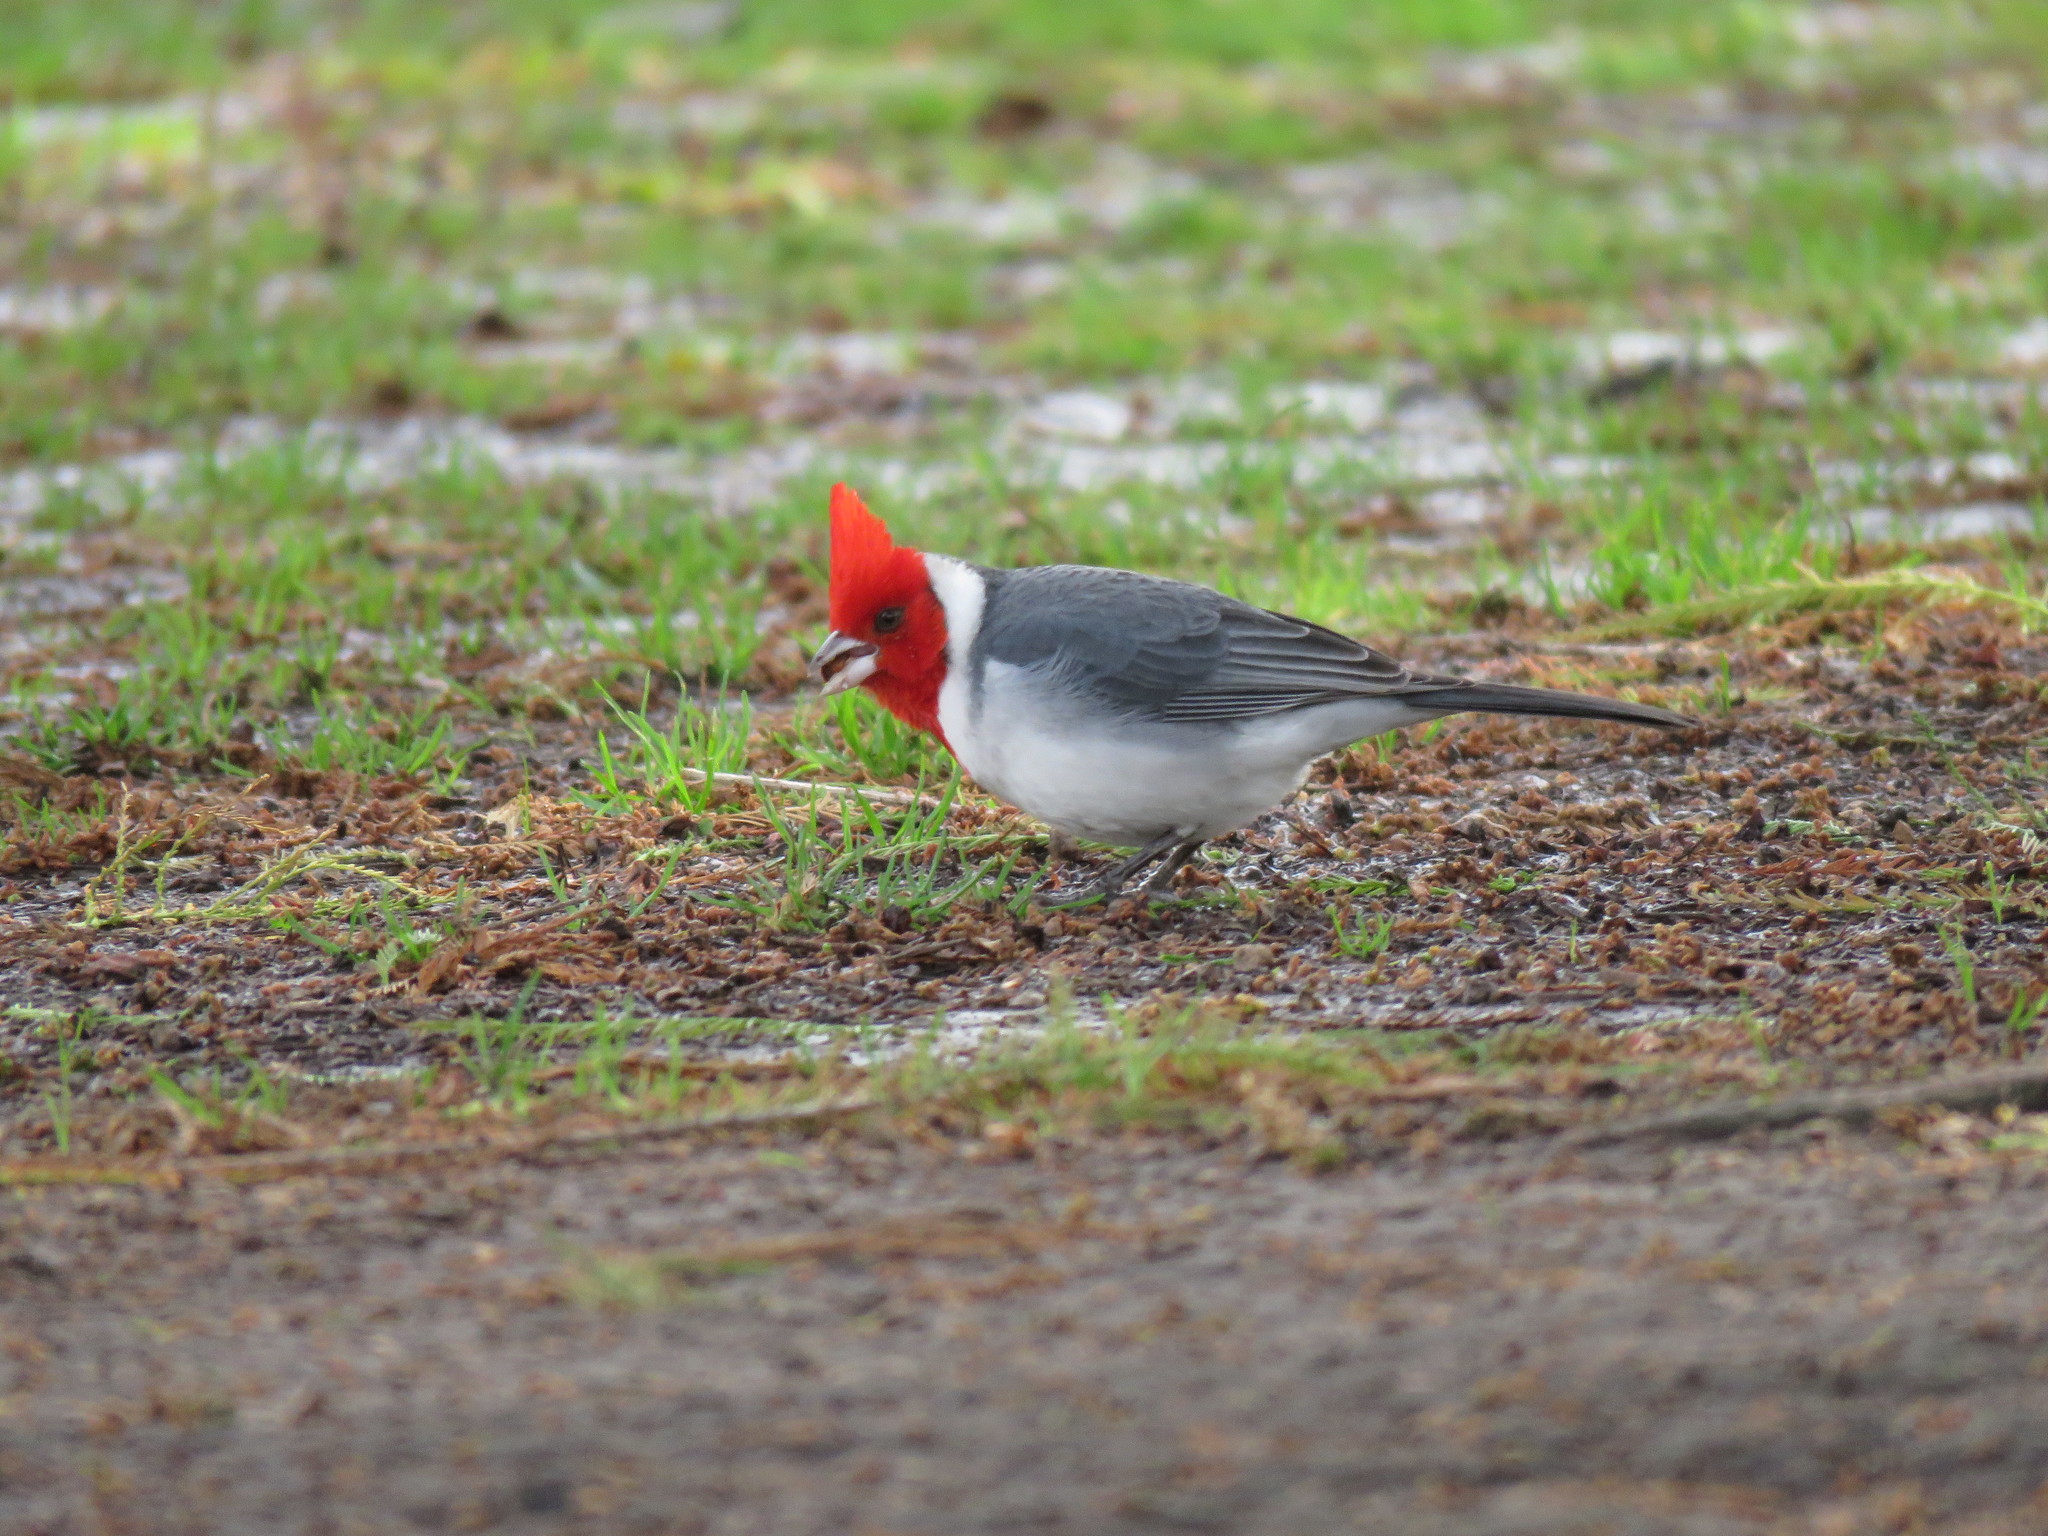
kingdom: Animalia
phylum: Chordata
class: Aves
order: Passeriformes
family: Thraupidae
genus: Paroaria
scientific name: Paroaria coronata
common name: Red-crested cardinal
